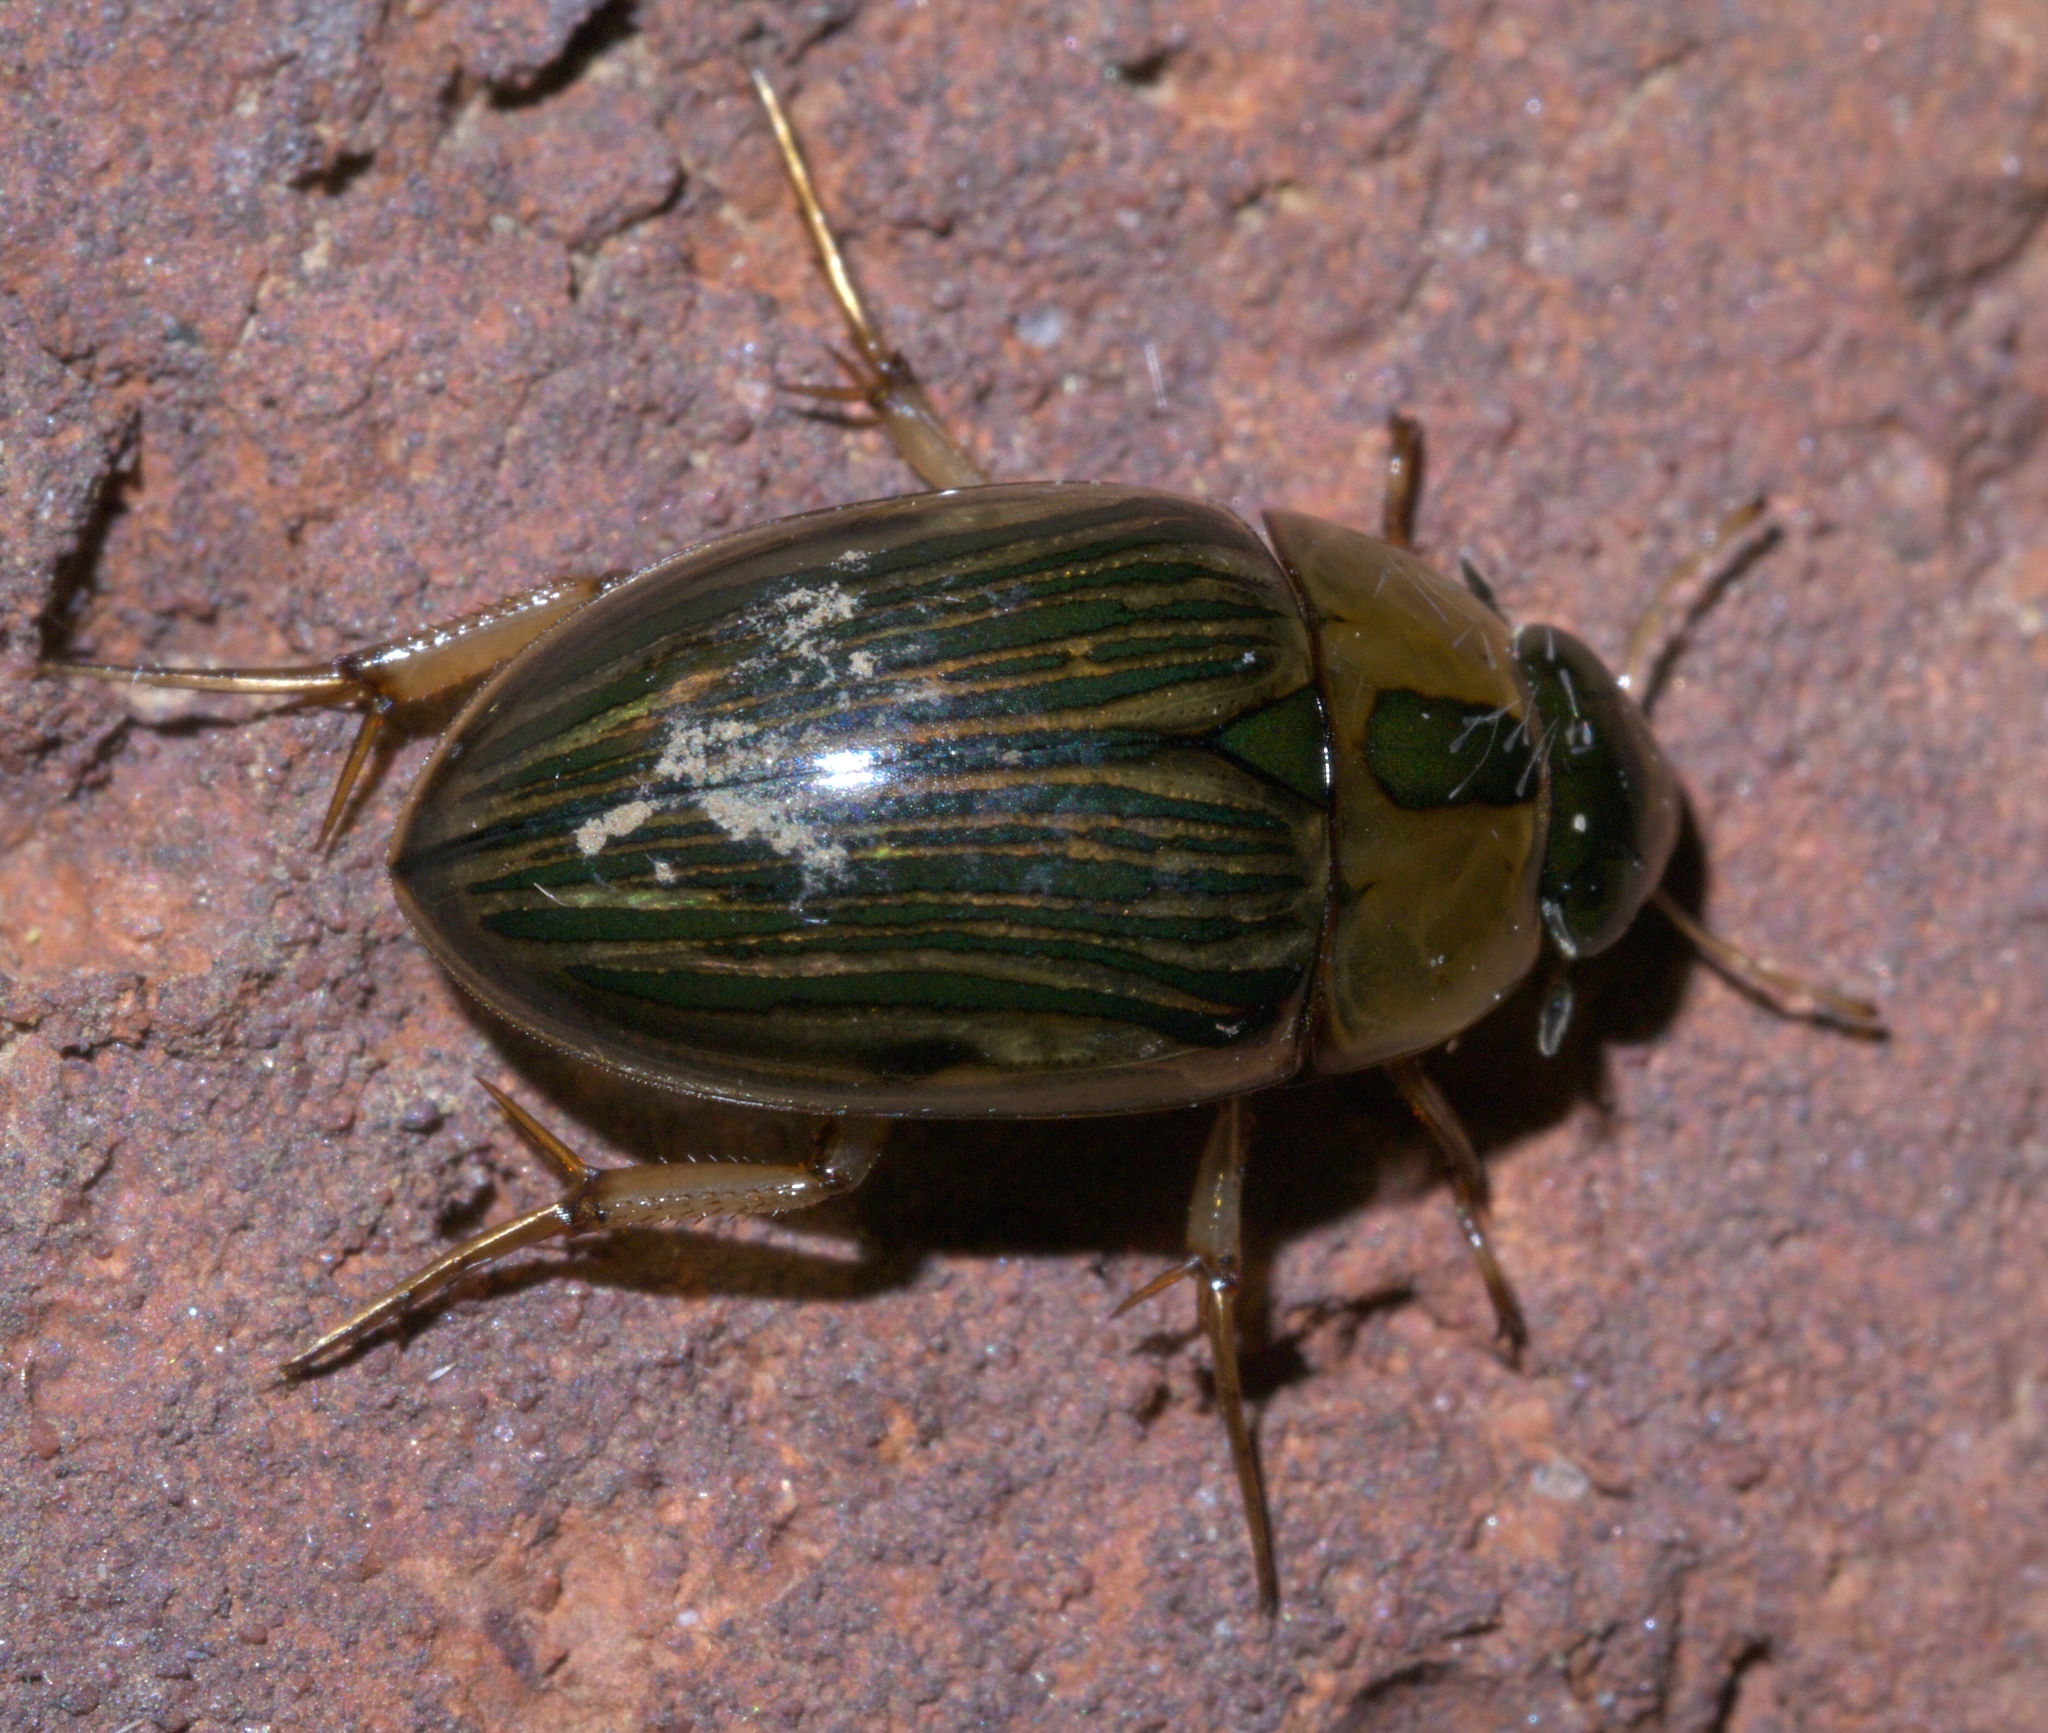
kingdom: Animalia
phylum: Arthropoda
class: Insecta
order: Coleoptera
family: Hydrophilidae
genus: Tropisternus
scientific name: Tropisternus collaris
